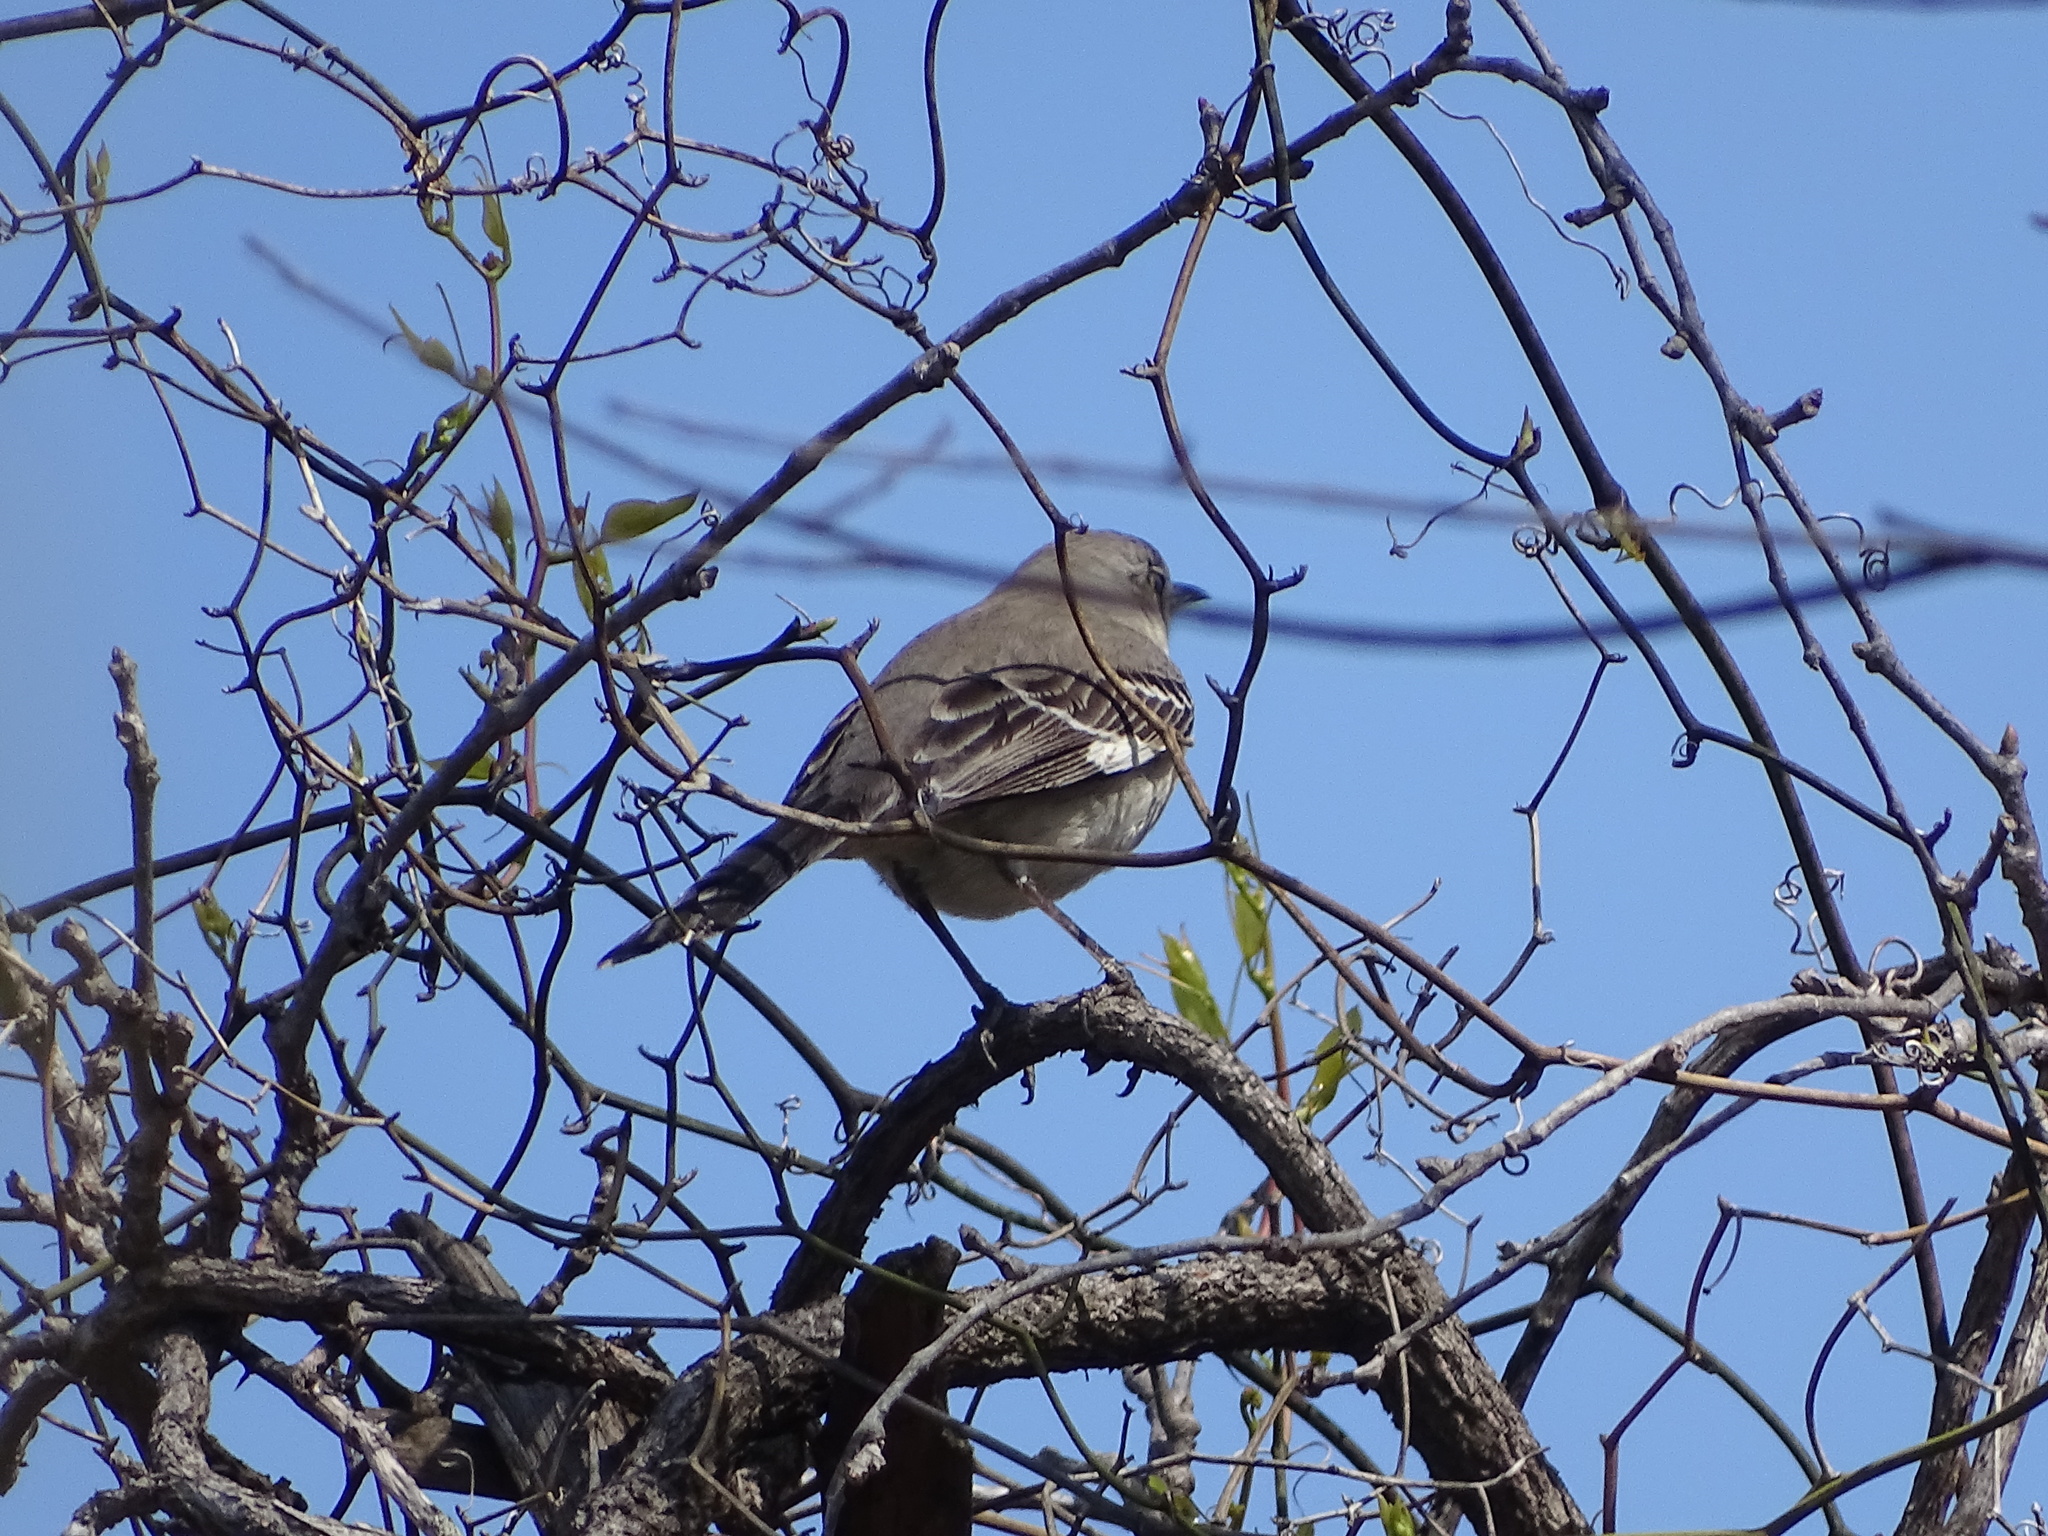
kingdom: Animalia
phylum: Chordata
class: Aves
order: Passeriformes
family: Mimidae
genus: Mimus
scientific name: Mimus polyglottos
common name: Northern mockingbird
